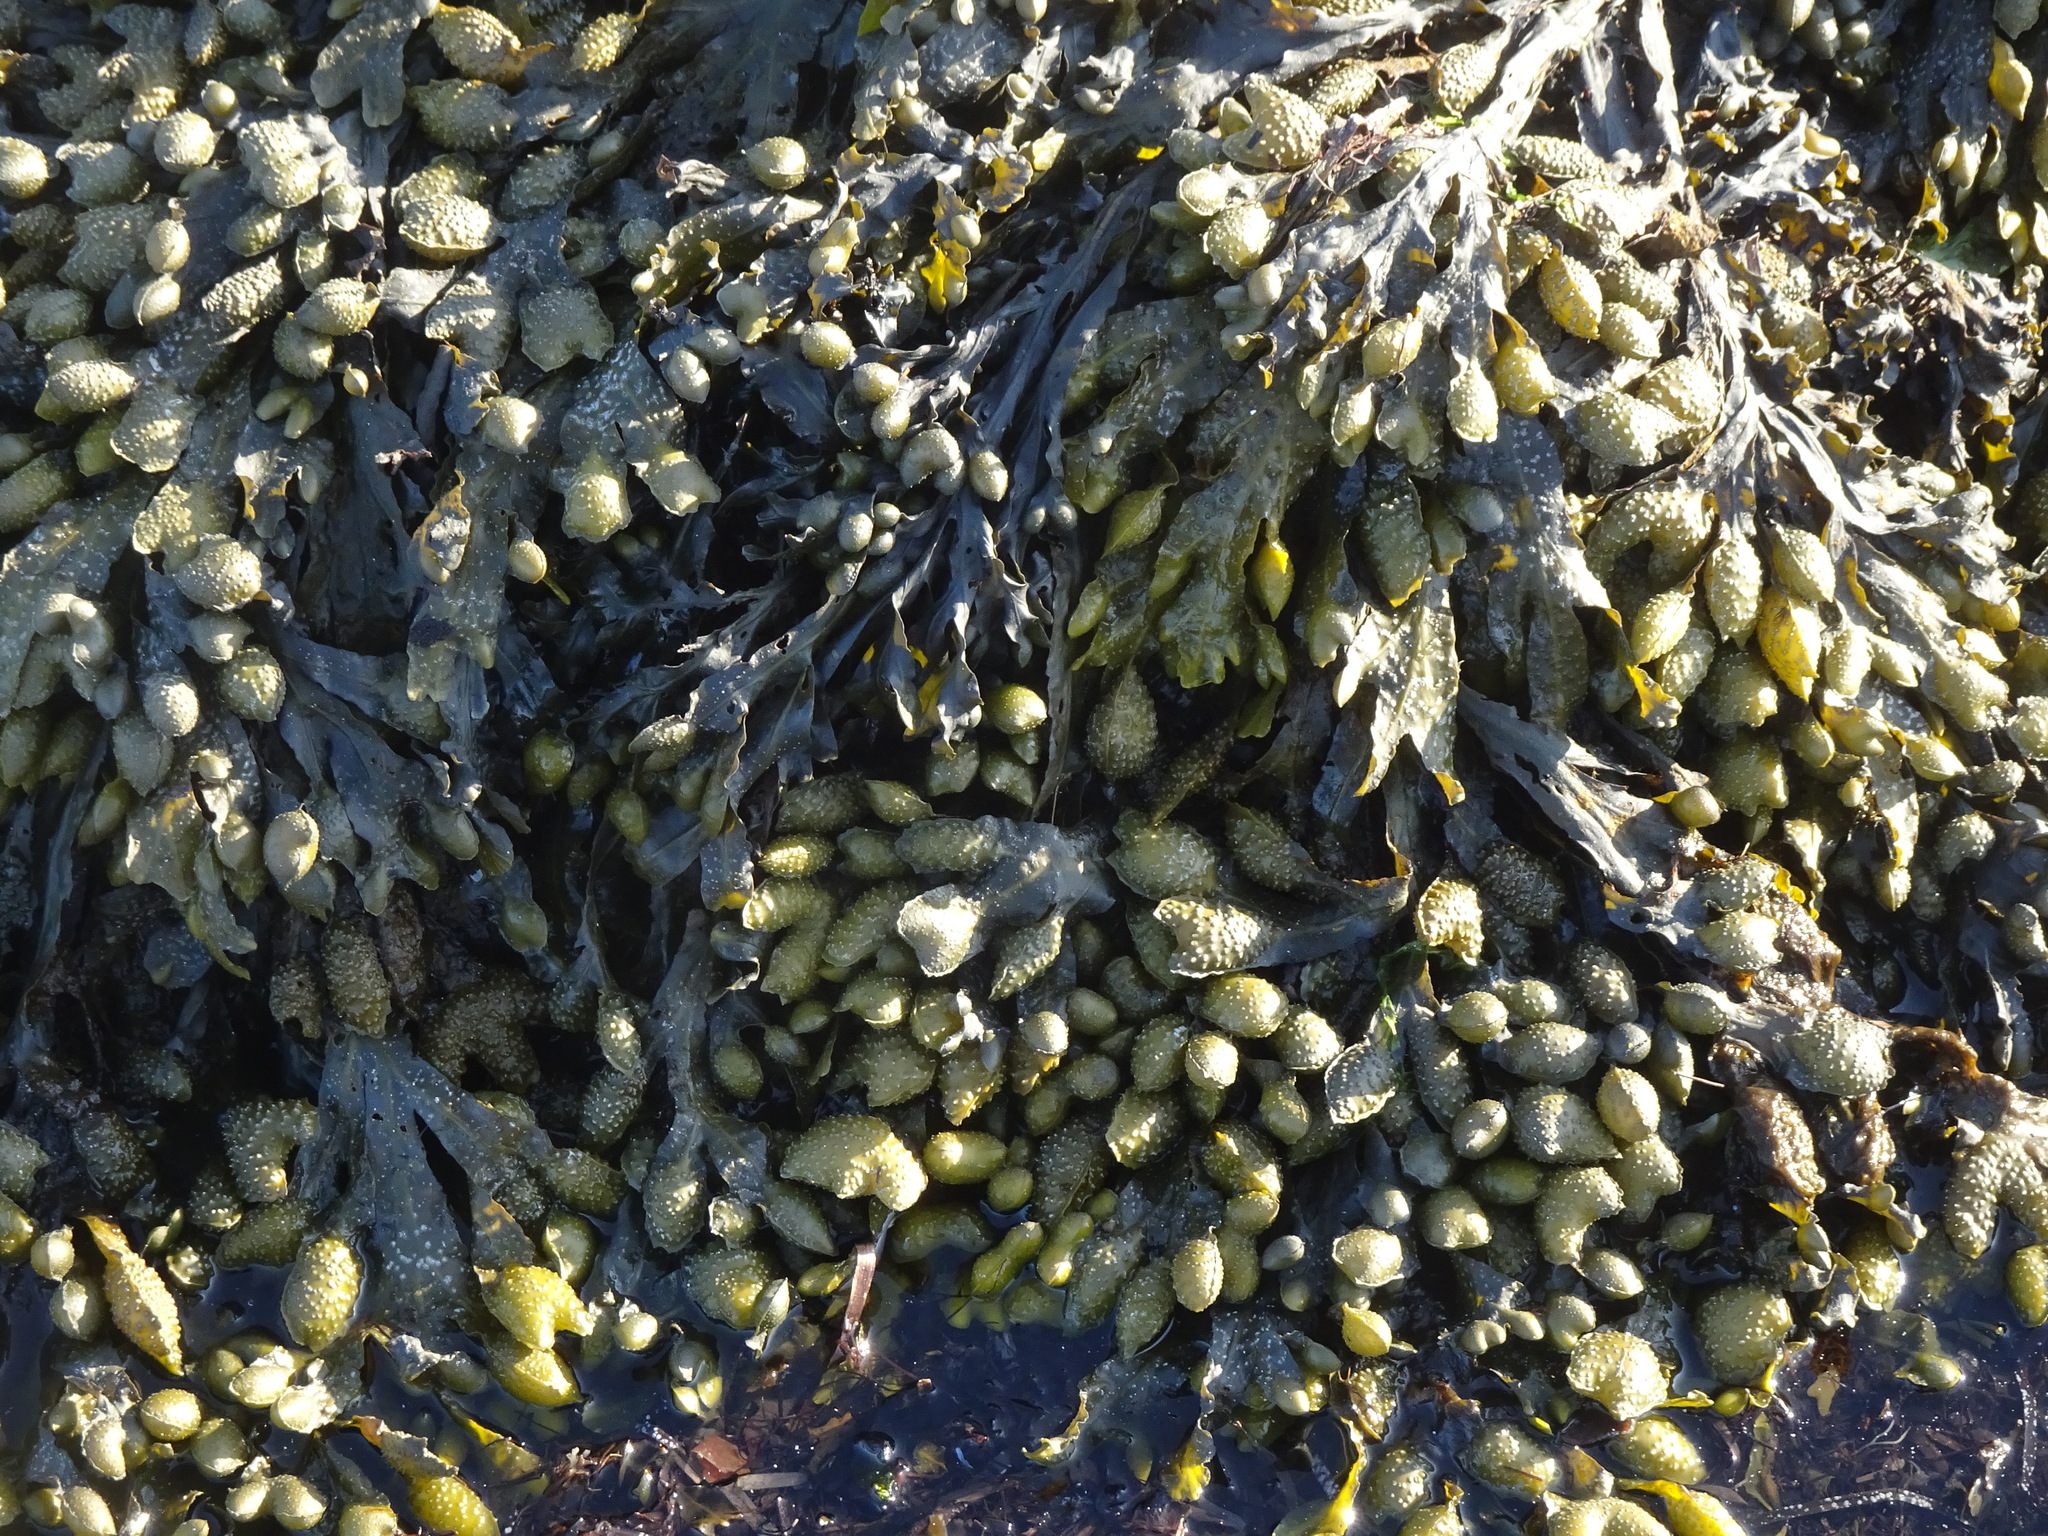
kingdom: Chromista
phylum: Ochrophyta
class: Phaeophyceae
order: Fucales
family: Fucaceae
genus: Fucus
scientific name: Fucus spiralis
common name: Spiral wrack
